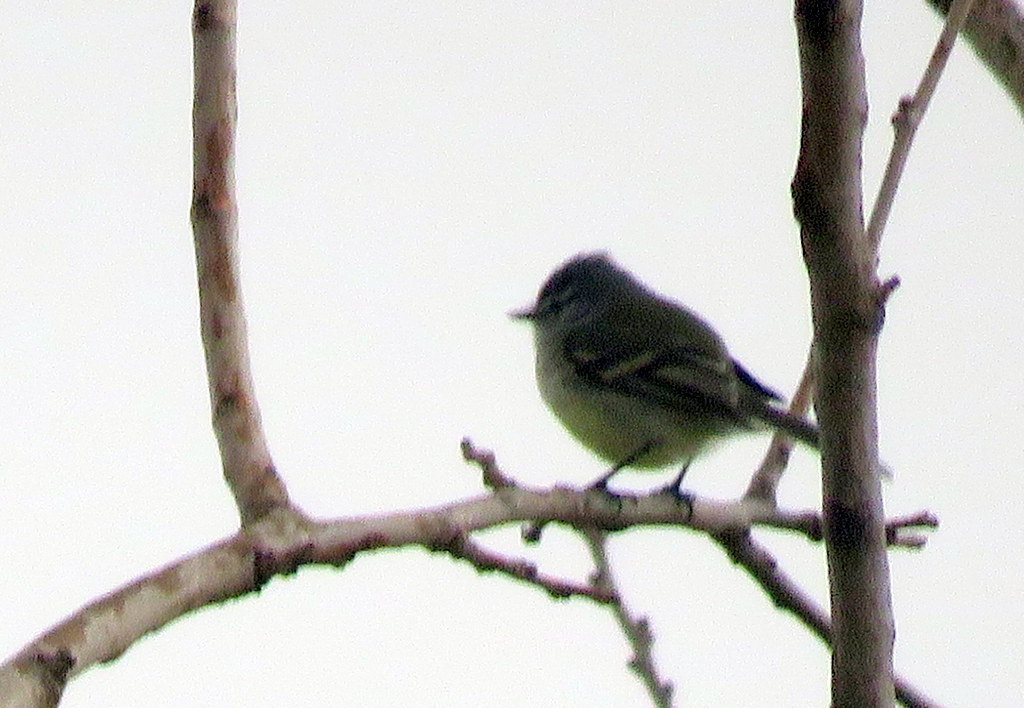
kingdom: Animalia
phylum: Chordata
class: Aves
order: Passeriformes
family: Tyrannidae
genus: Serpophaga
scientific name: Serpophaga subcristata
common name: White-crested tyrannulet
